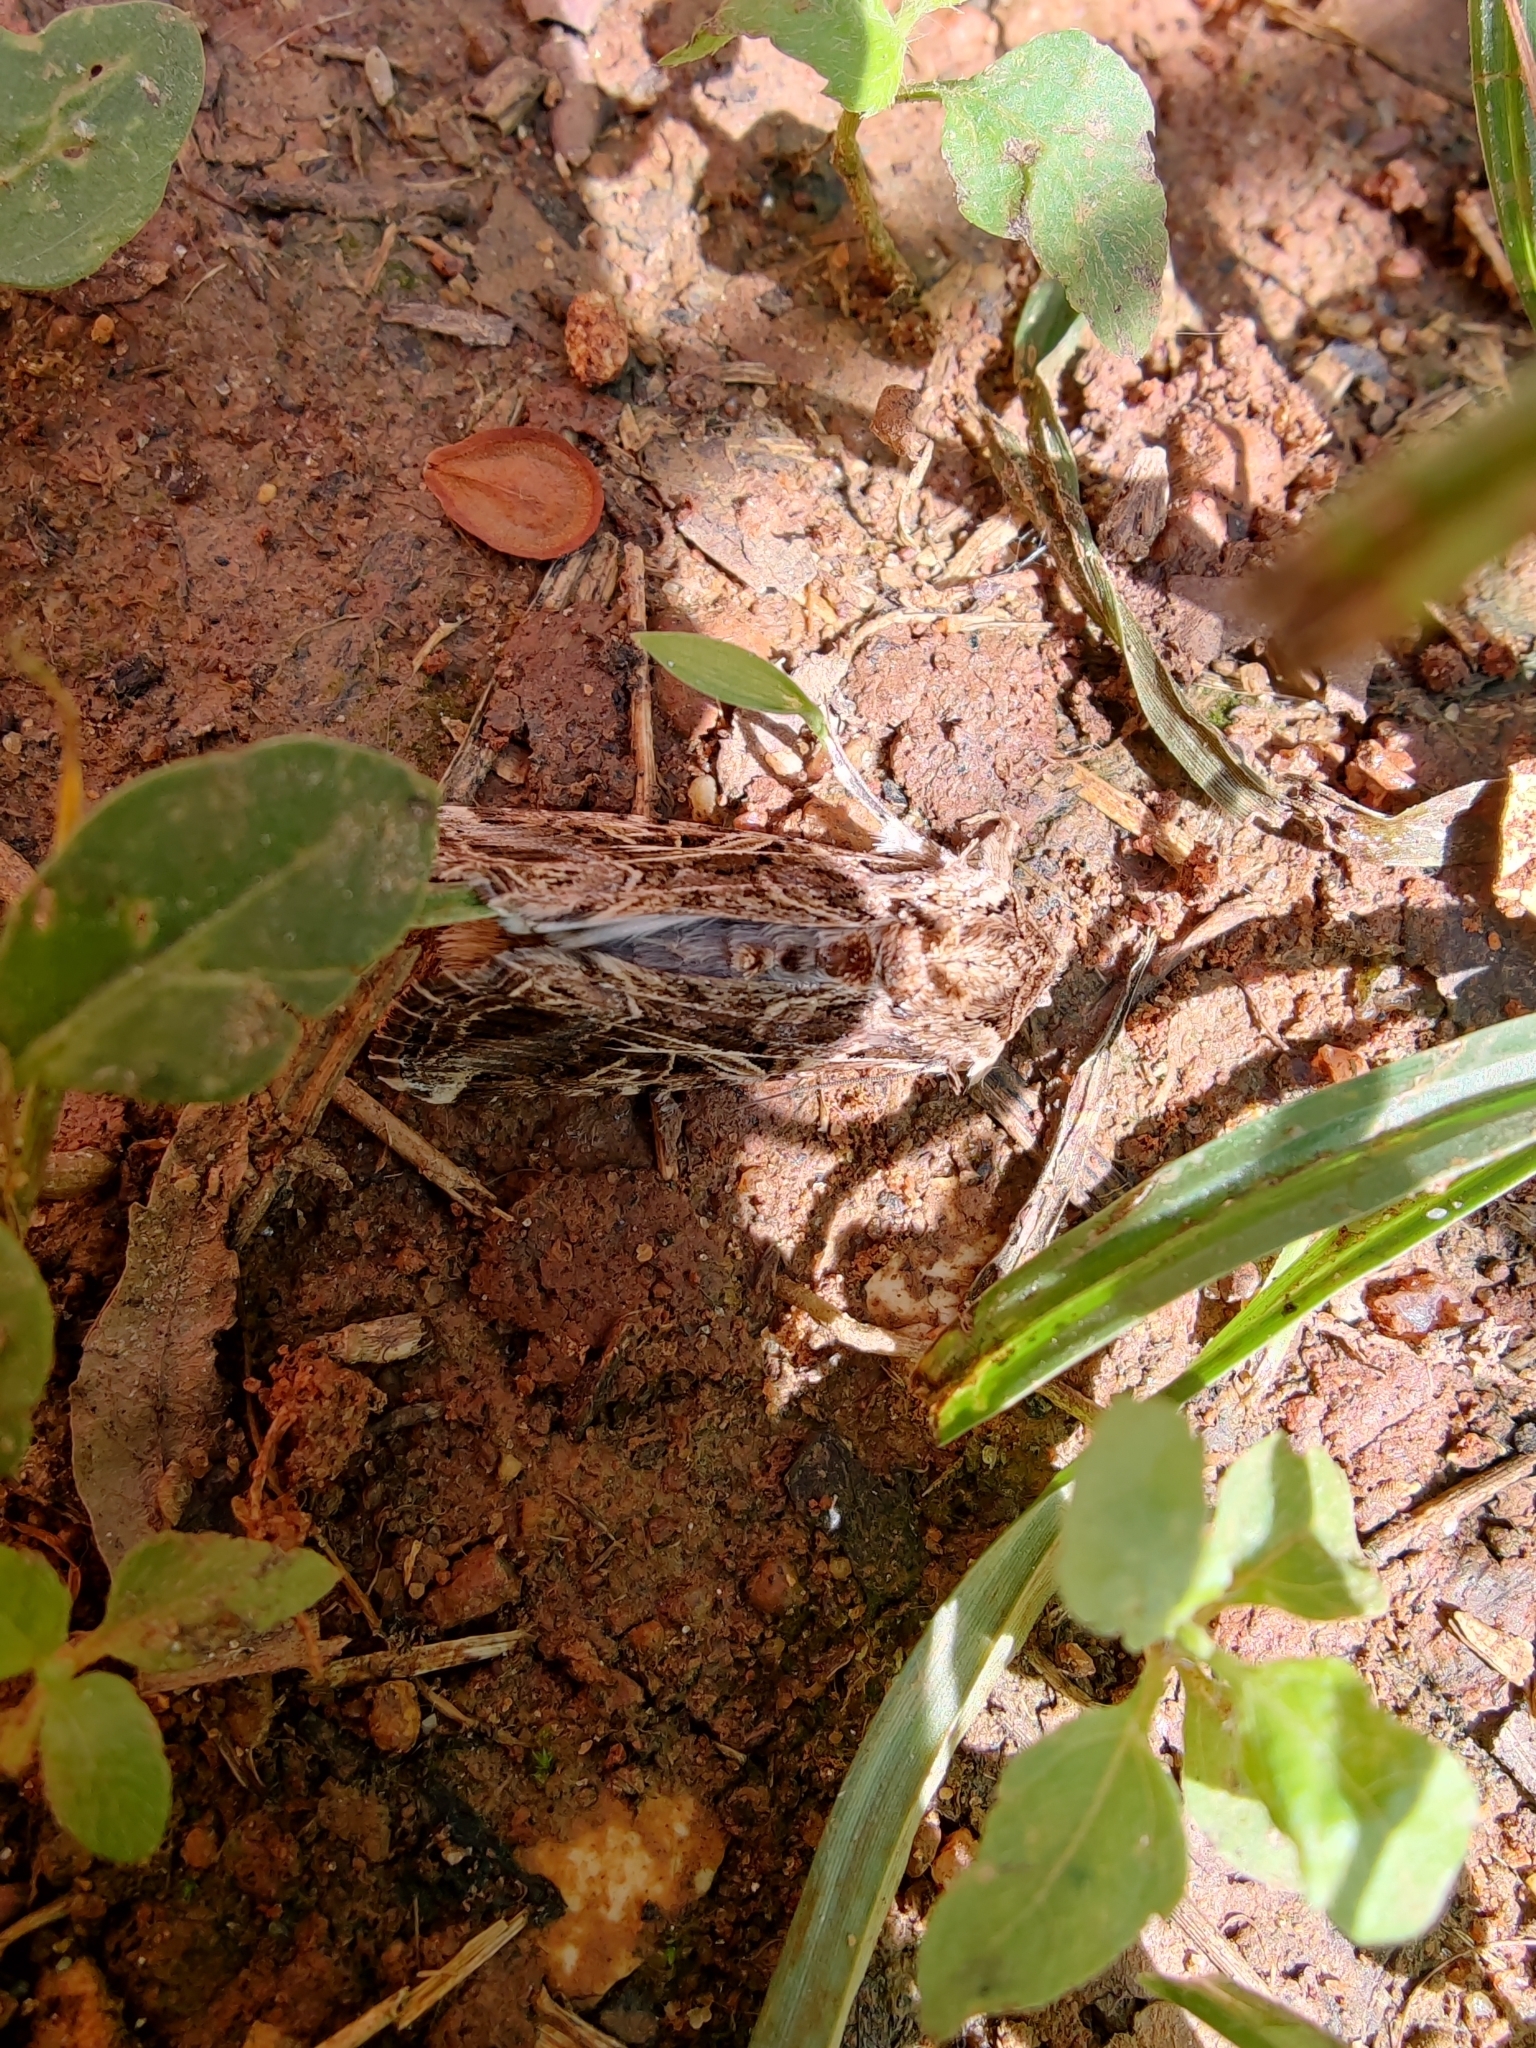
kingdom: Animalia
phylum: Arthropoda
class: Insecta
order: Lepidoptera
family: Noctuidae
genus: Spodoptera
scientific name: Spodoptera litura
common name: Asian cotton leafworm
